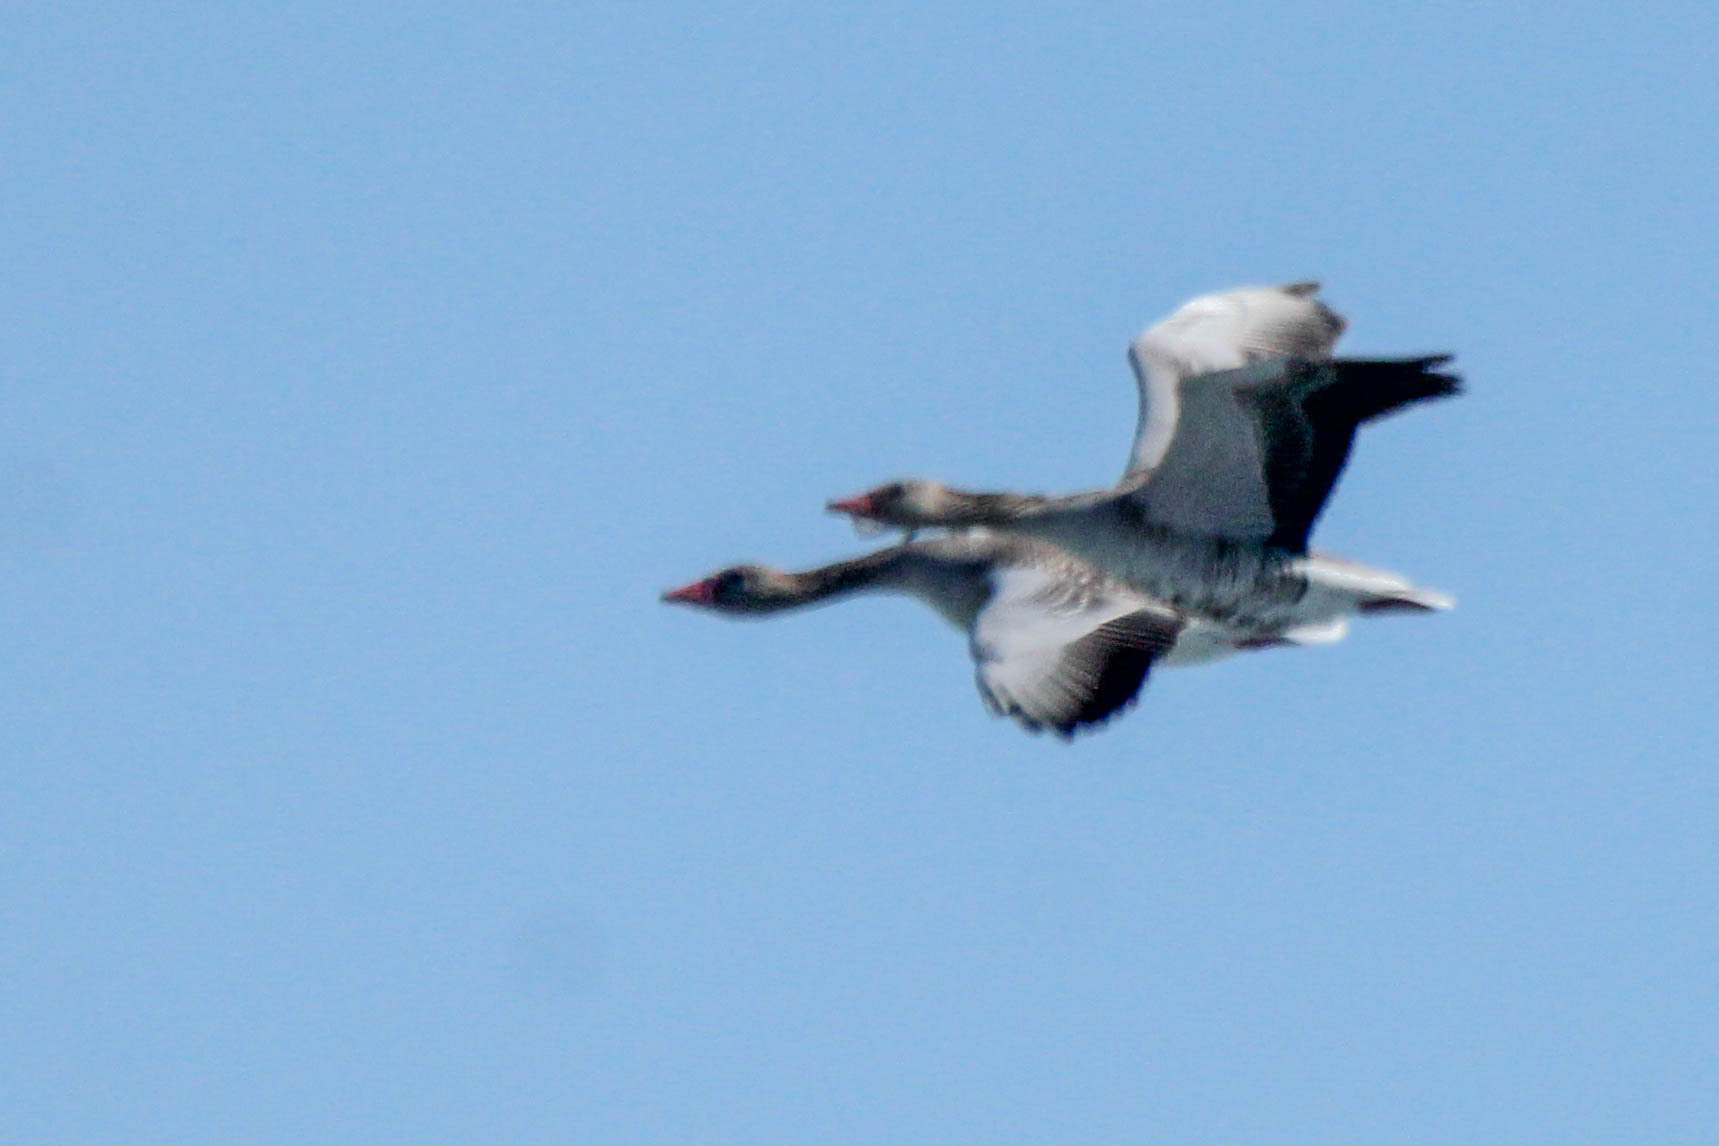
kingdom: Animalia
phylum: Chordata
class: Aves
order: Anseriformes
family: Anatidae
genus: Anser
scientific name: Anser anser
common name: Greylag goose
